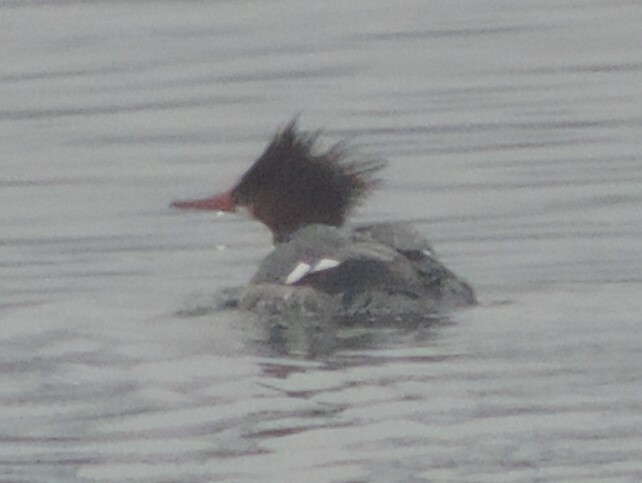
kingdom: Animalia
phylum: Chordata
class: Aves
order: Anseriformes
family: Anatidae
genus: Mergus
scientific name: Mergus merganser
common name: Common merganser
